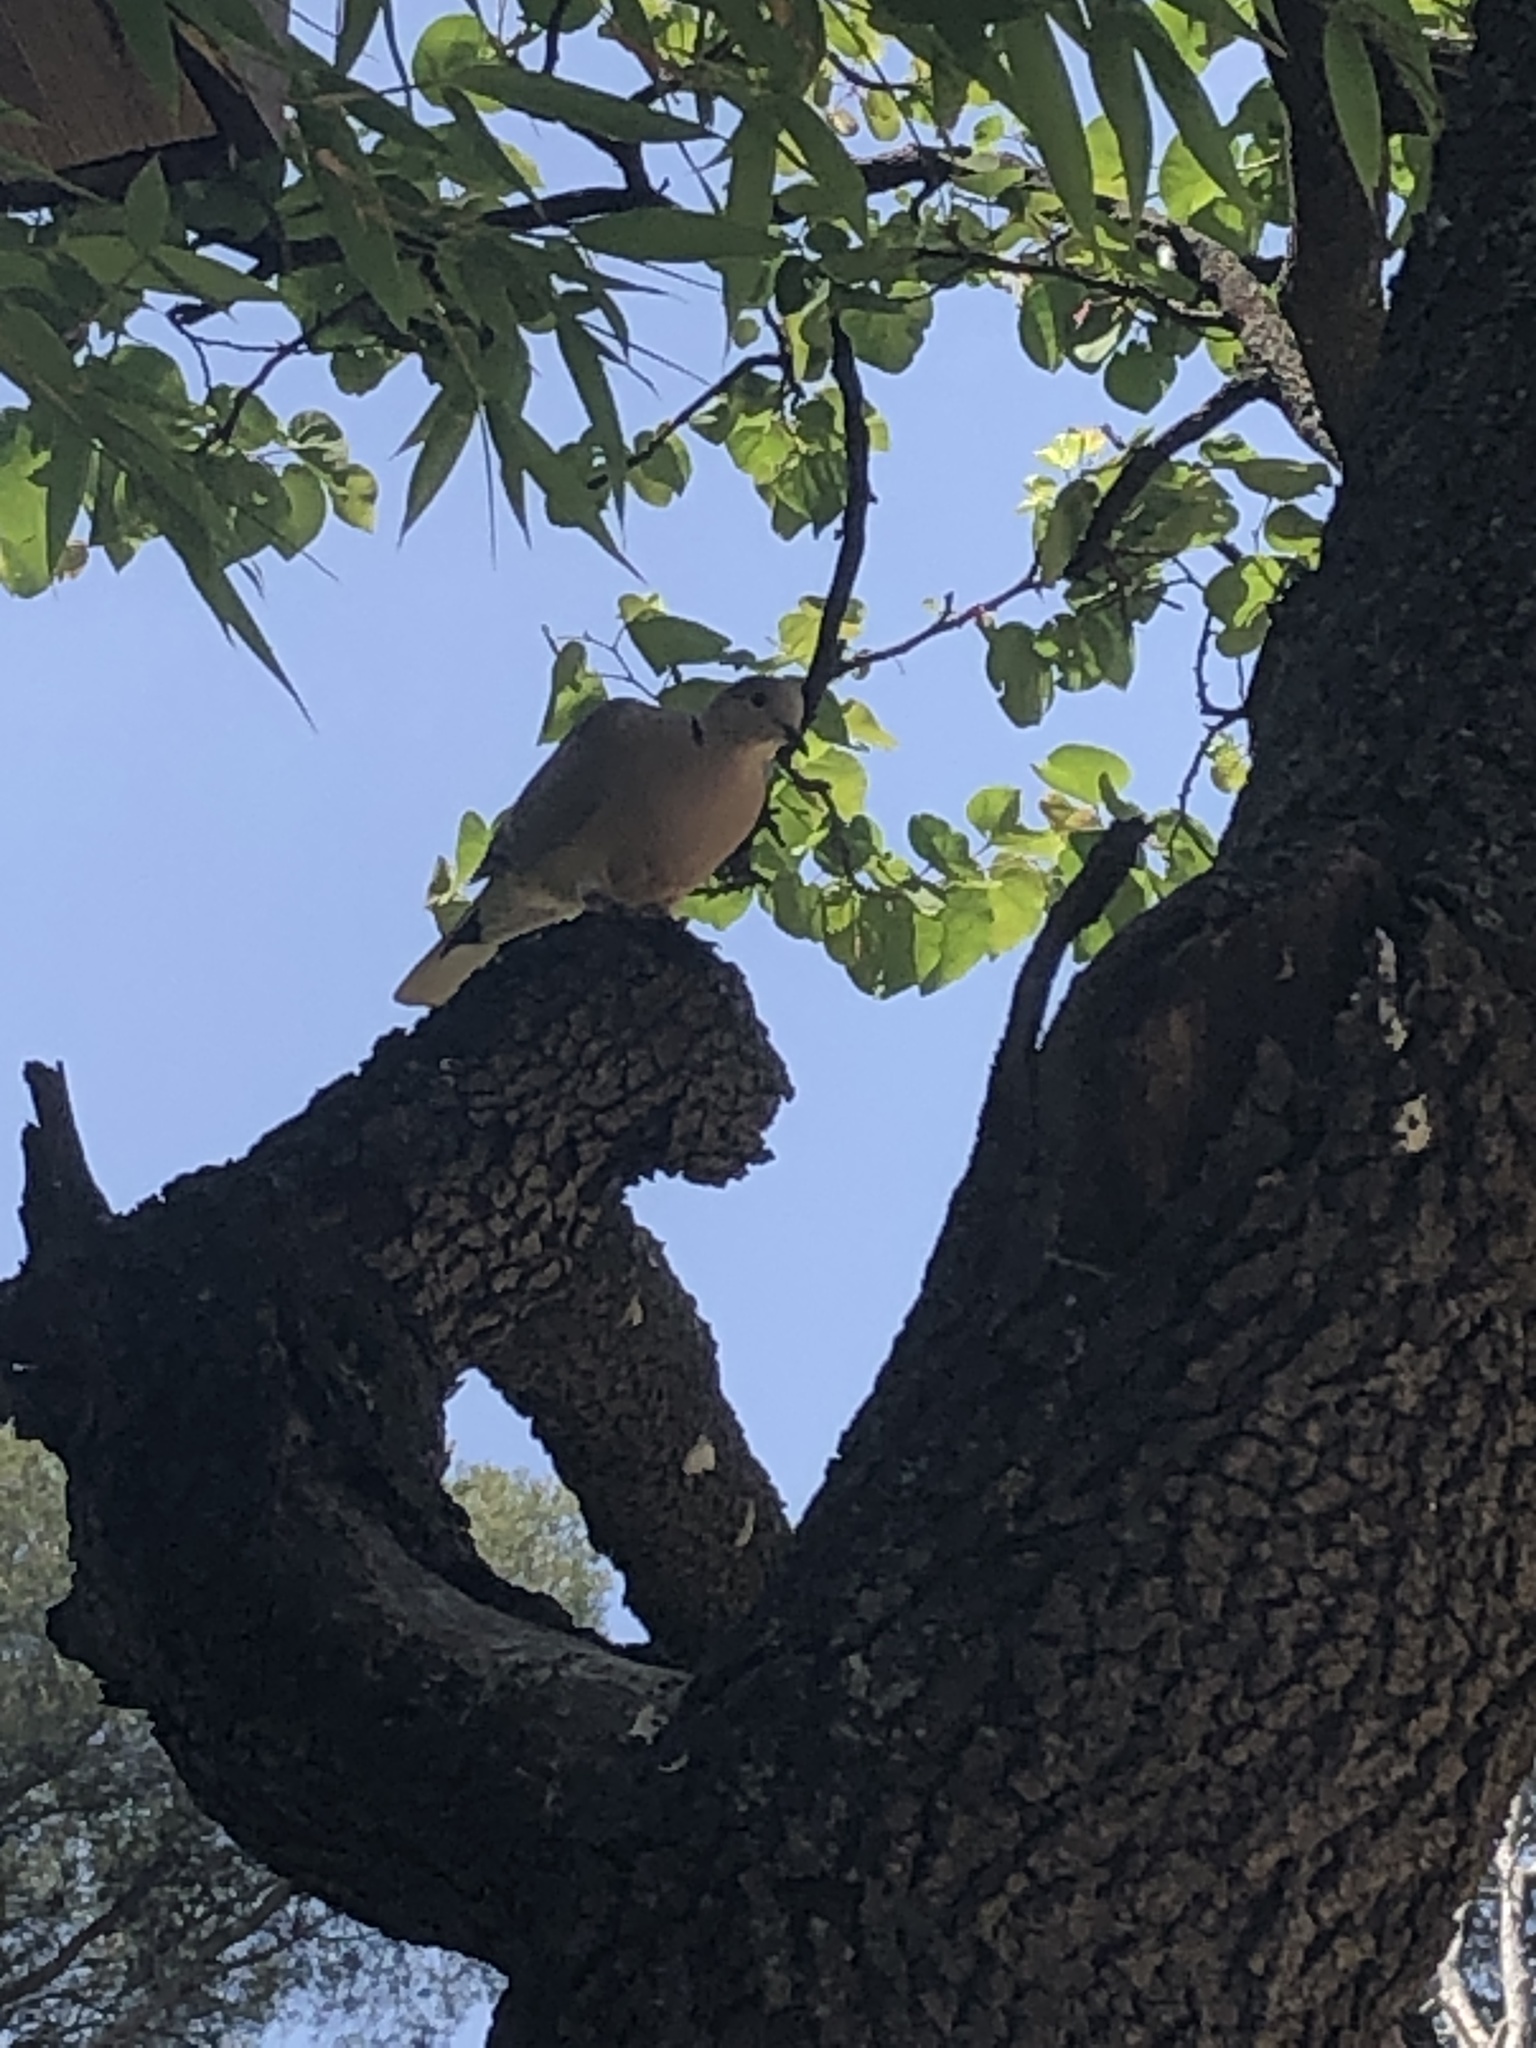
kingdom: Animalia
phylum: Chordata
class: Aves
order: Columbiformes
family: Columbidae
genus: Streptopelia
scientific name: Streptopelia decaocto
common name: Eurasian collared dove
